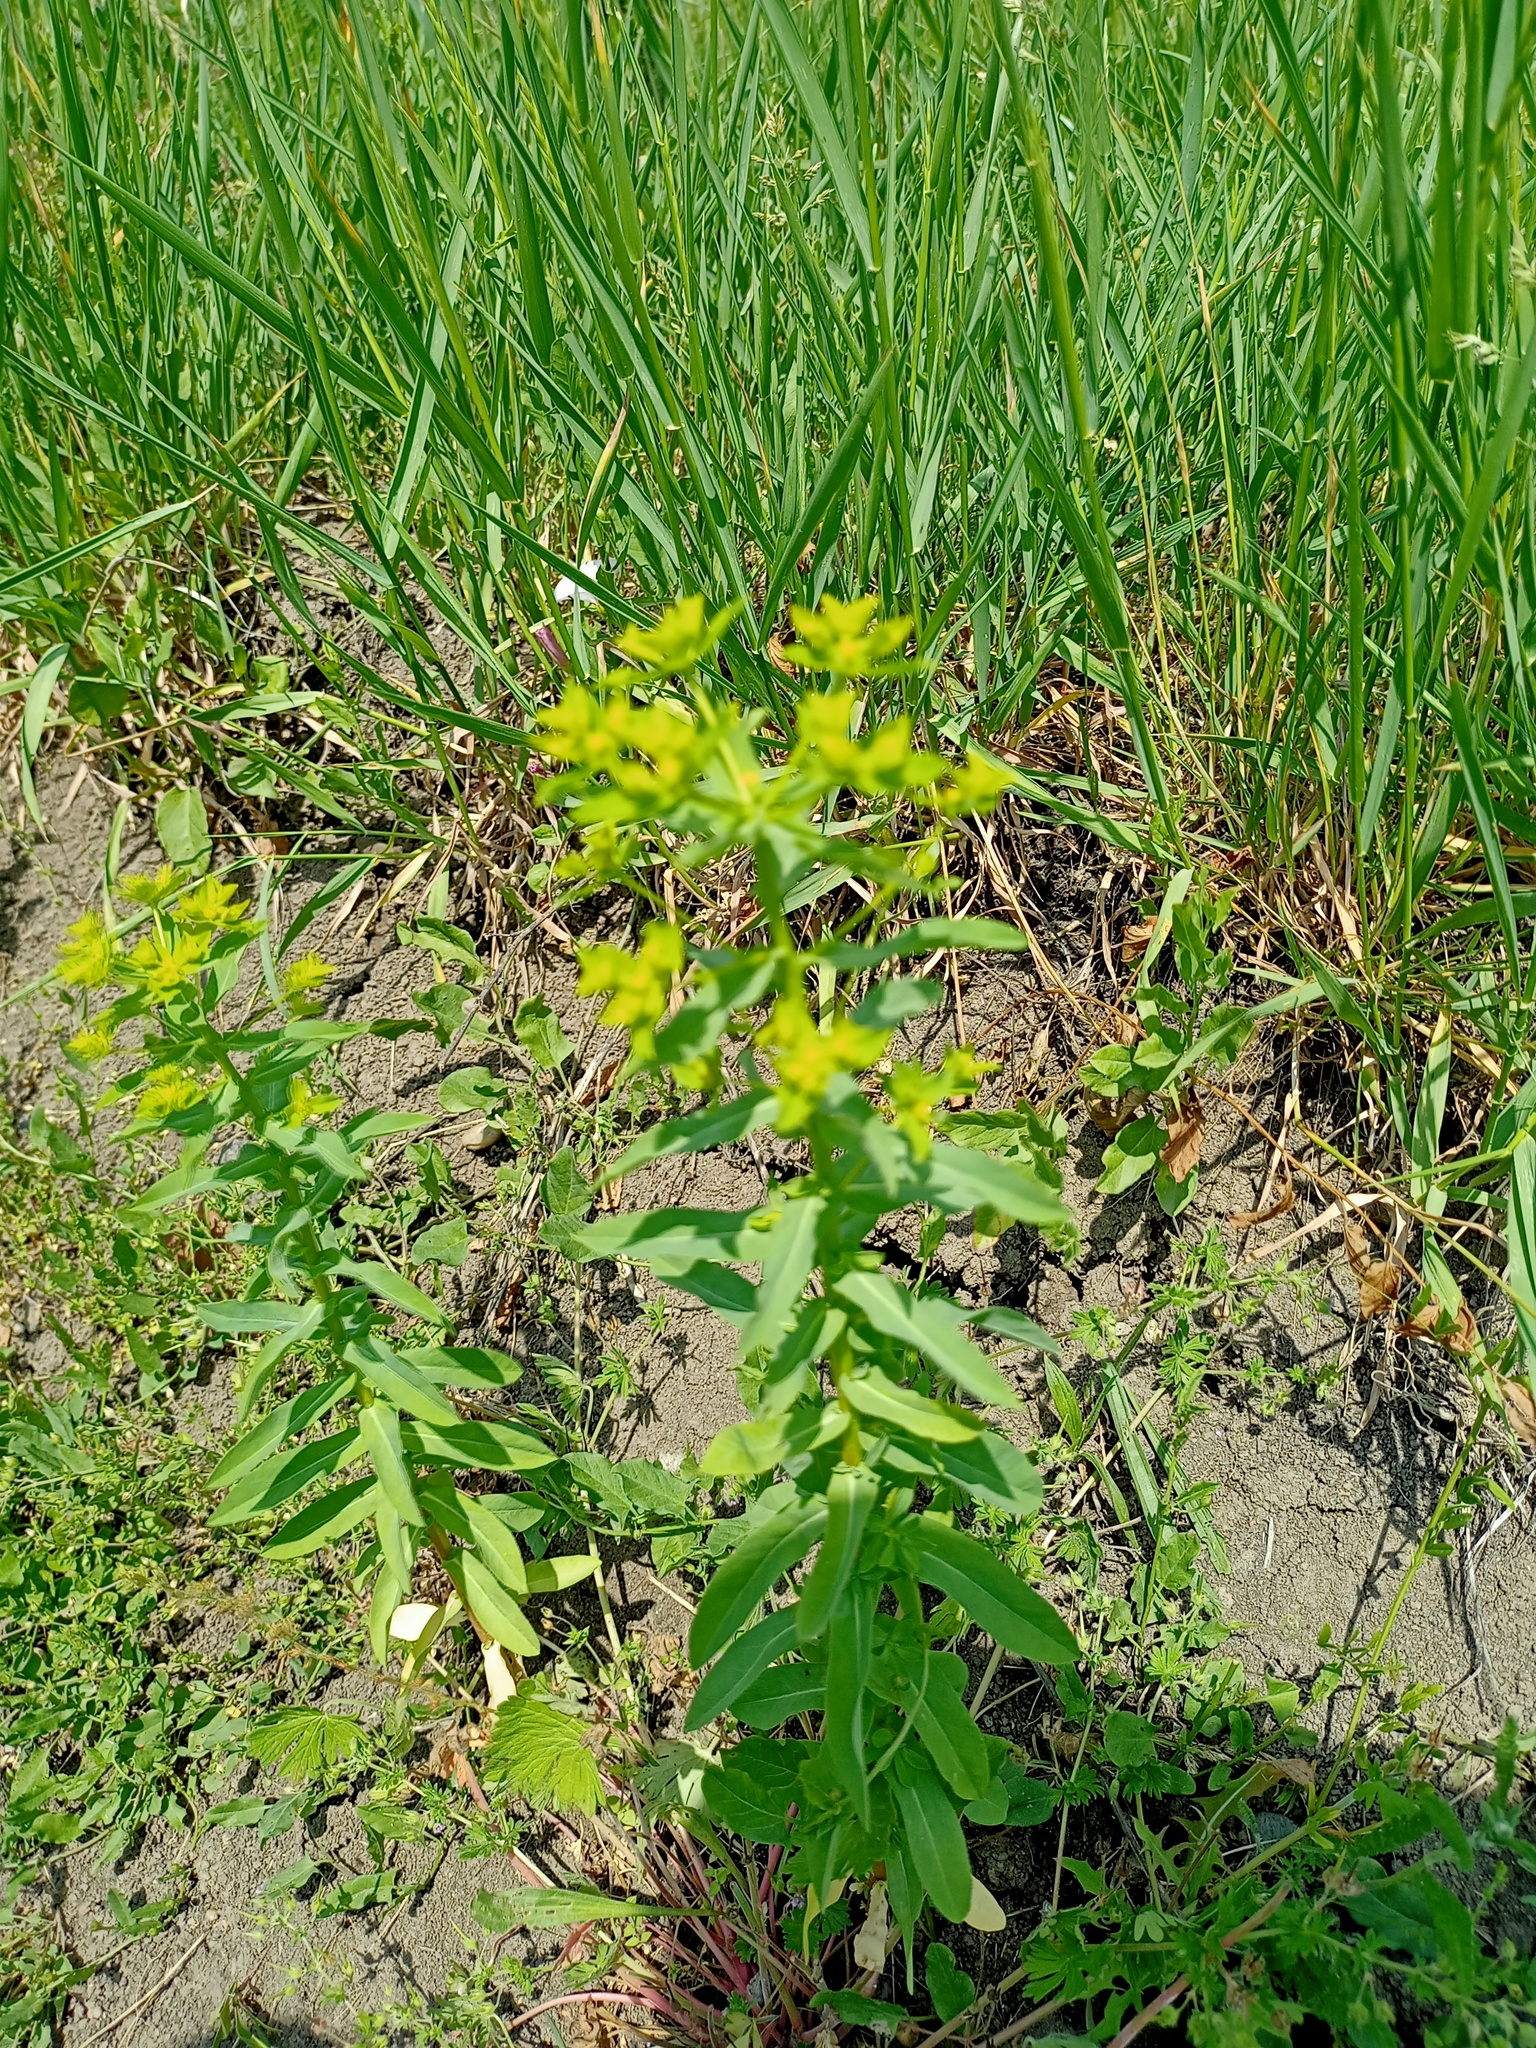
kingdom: Plantae
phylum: Tracheophyta
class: Magnoliopsida
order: Malpighiales
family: Euphorbiaceae
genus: Euphorbia
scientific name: Euphorbia platyphyllos
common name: Broad-leaved spurge
